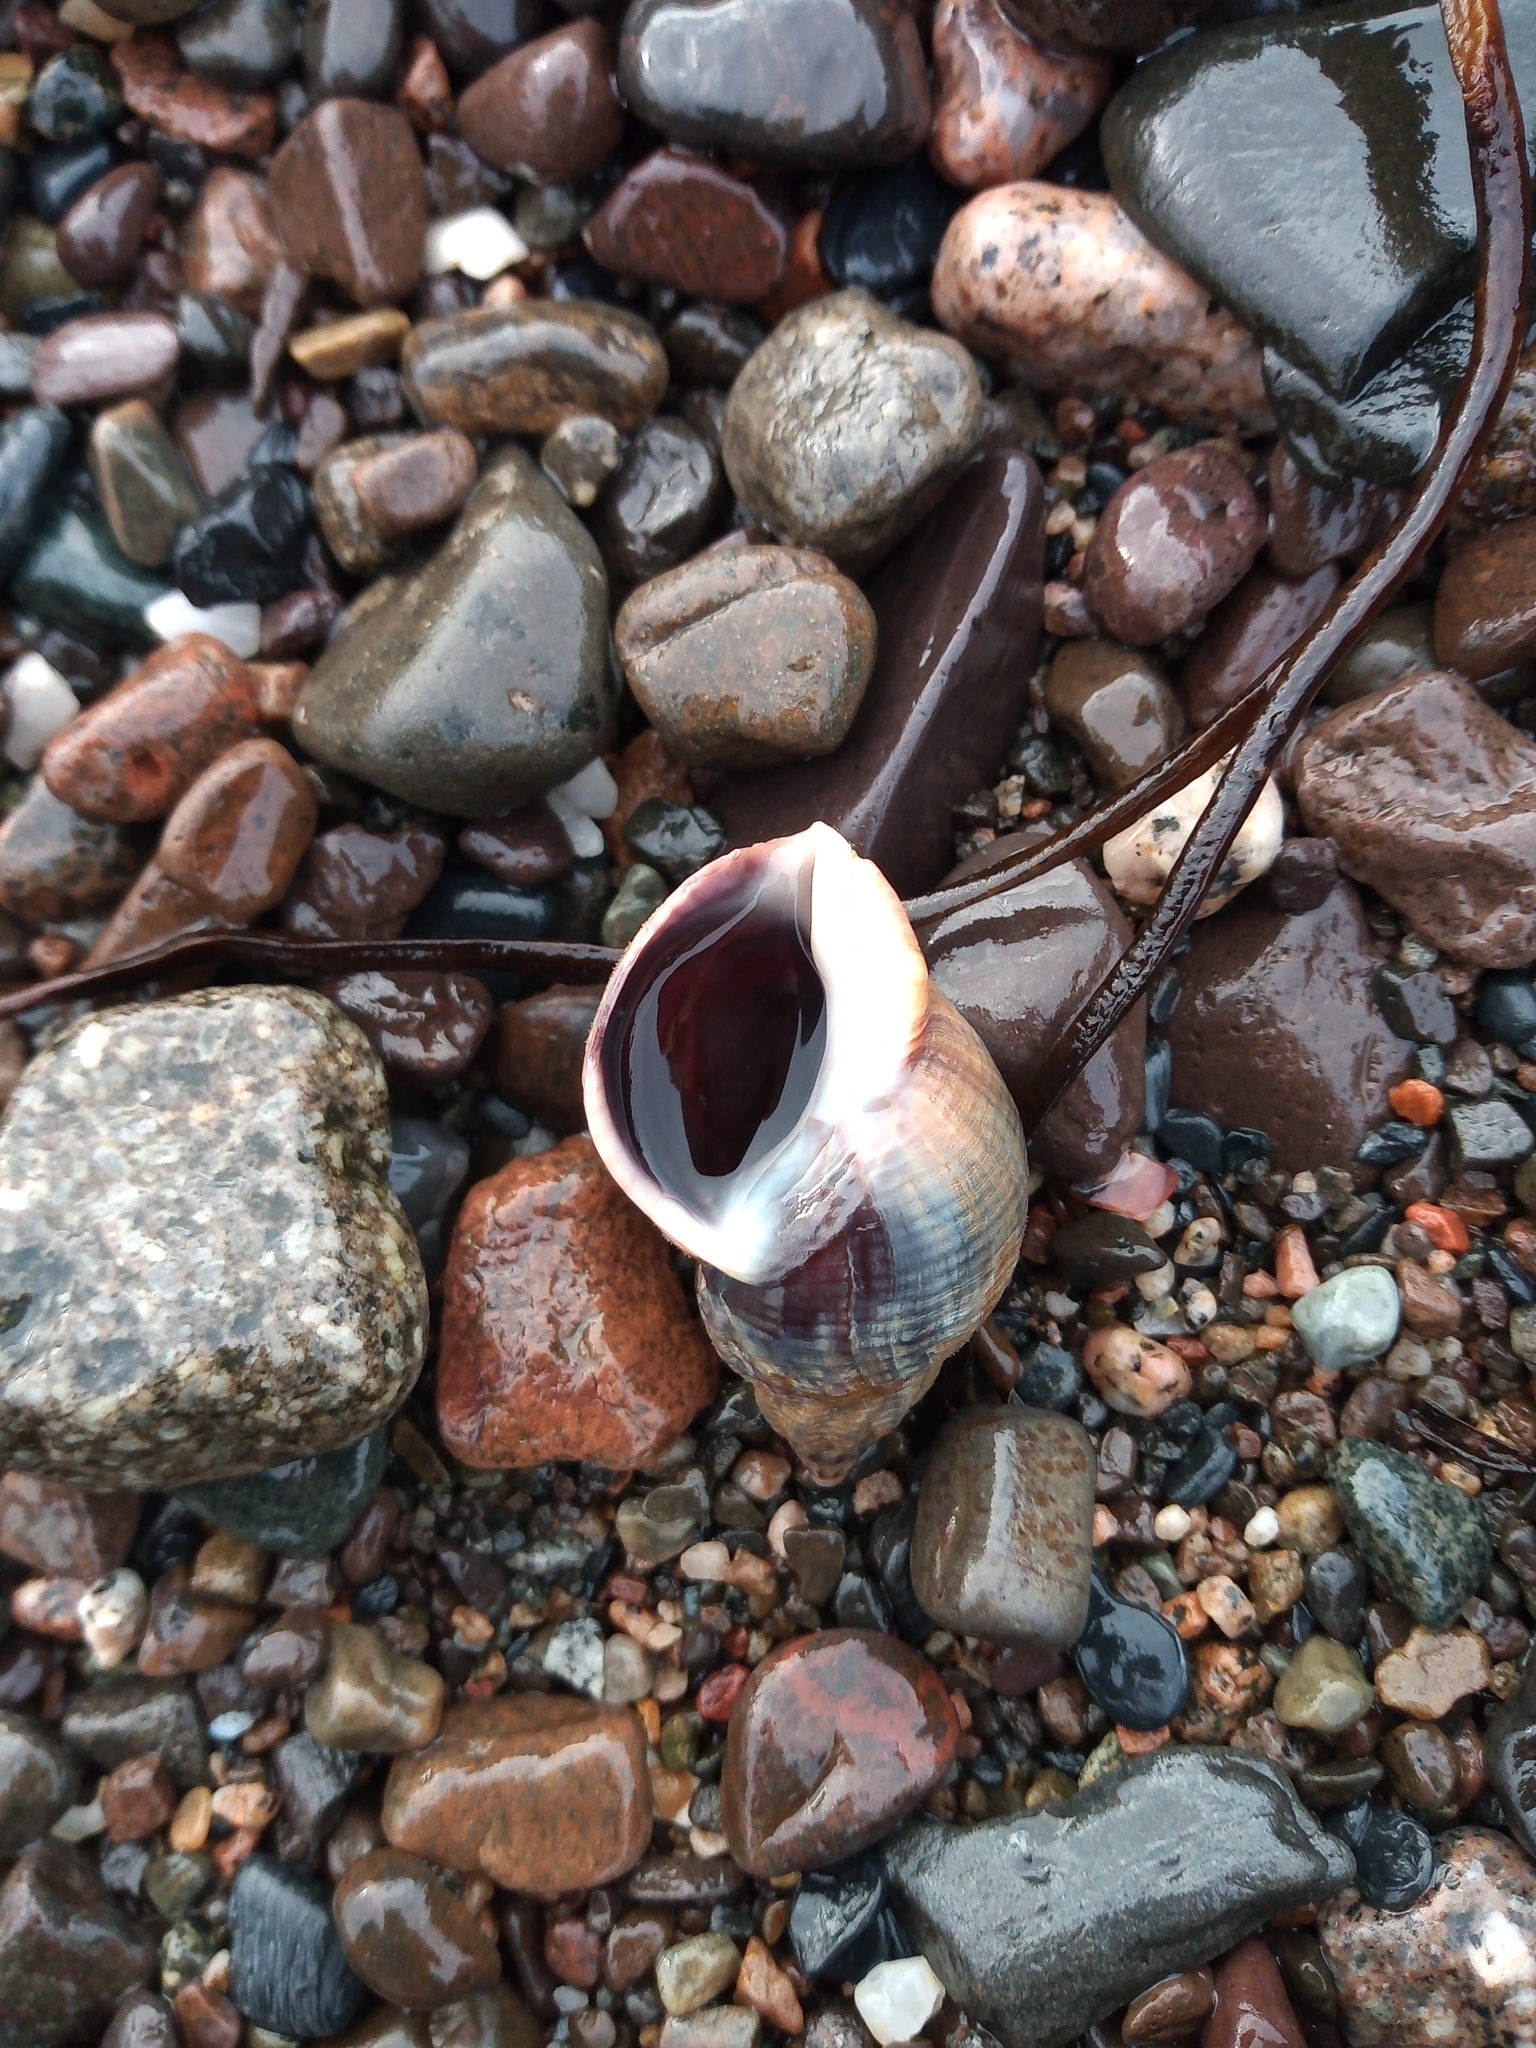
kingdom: Animalia
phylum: Mollusca
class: Gastropoda
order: Neogastropoda
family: Buccinidae
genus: Buccinum
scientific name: Buccinum undatum
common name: Common whelk
